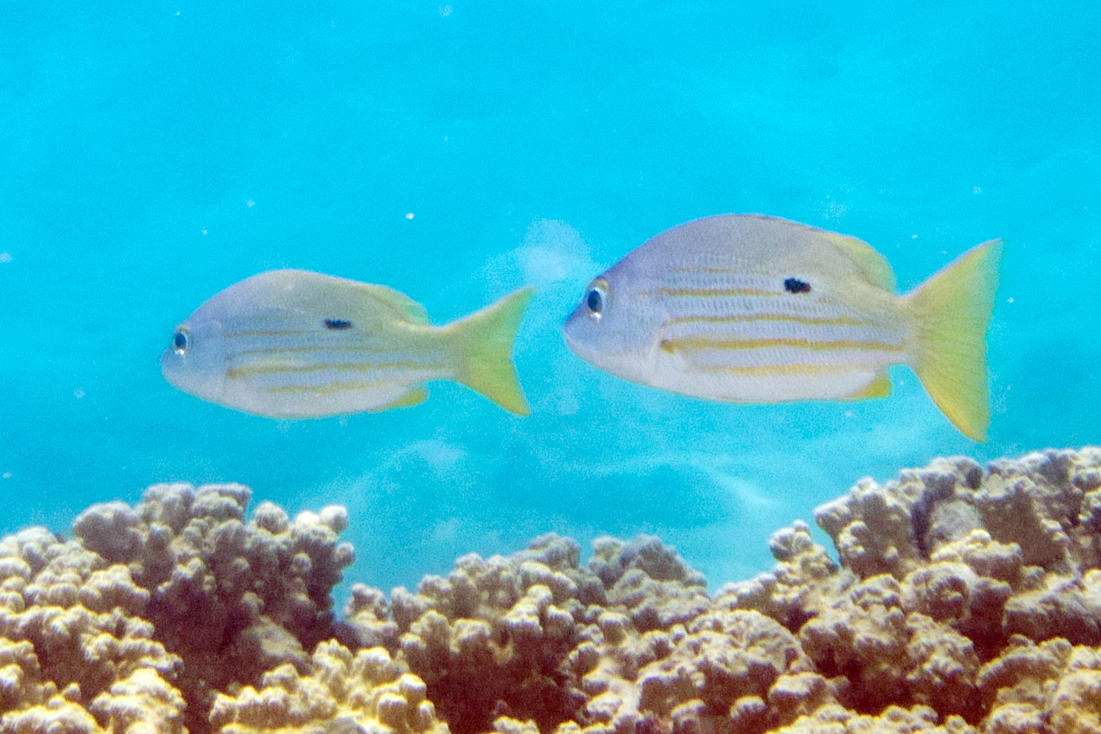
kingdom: Animalia
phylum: Chordata
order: Perciformes
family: Lutjanidae
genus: Lutjanus
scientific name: Lutjanus fulviflamma
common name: Blackspot snapper
